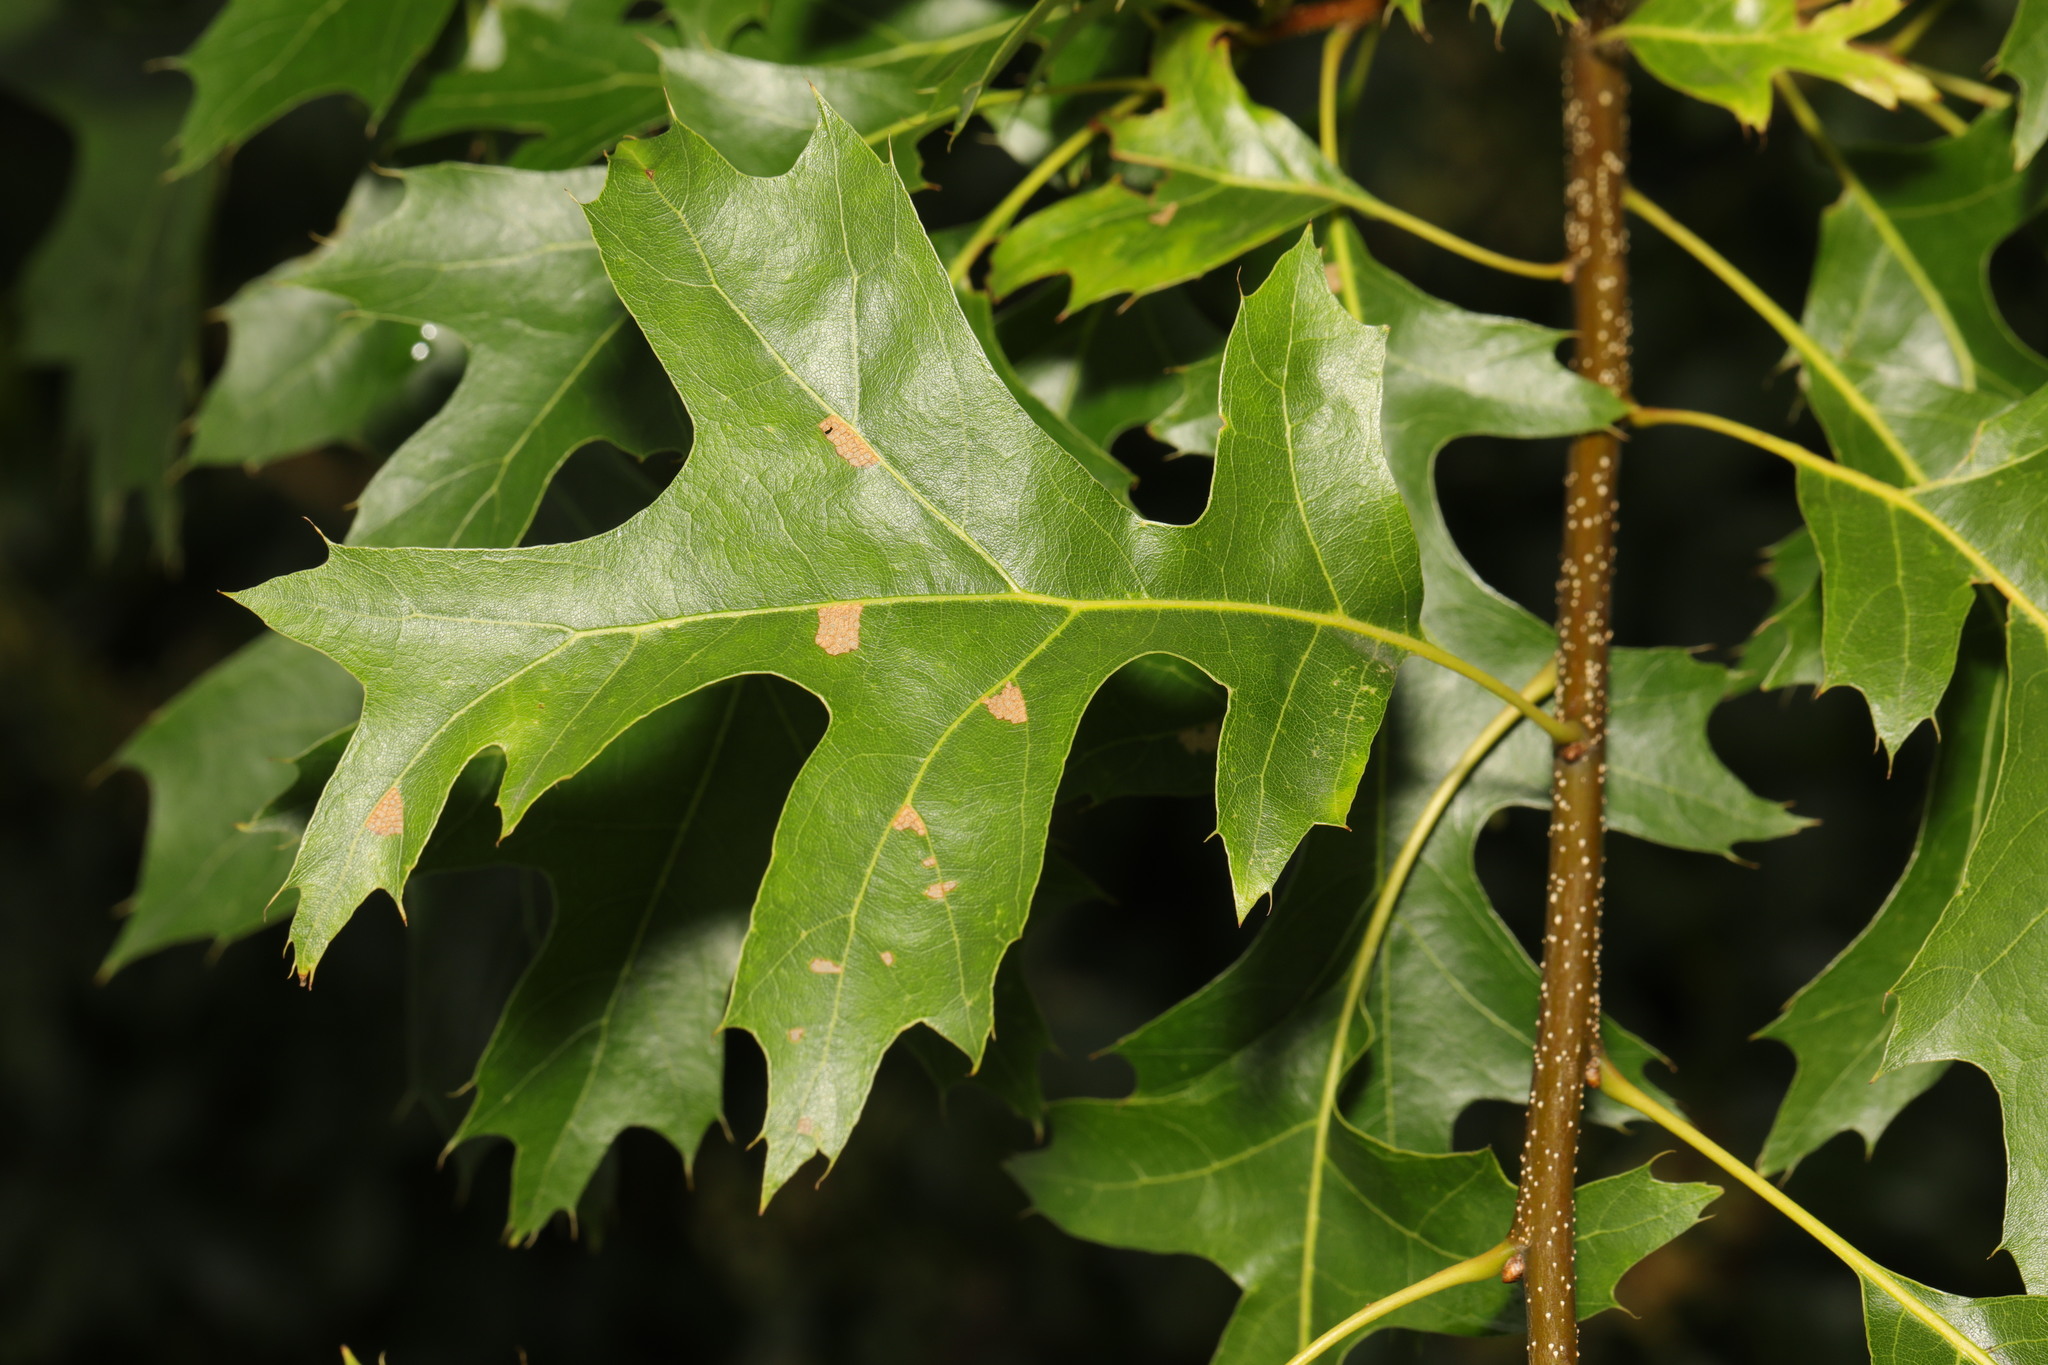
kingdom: Plantae
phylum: Tracheophyta
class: Magnoliopsida
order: Fagales
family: Fagaceae
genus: Quercus
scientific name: Quercus coccinea
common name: Scarlet oak
